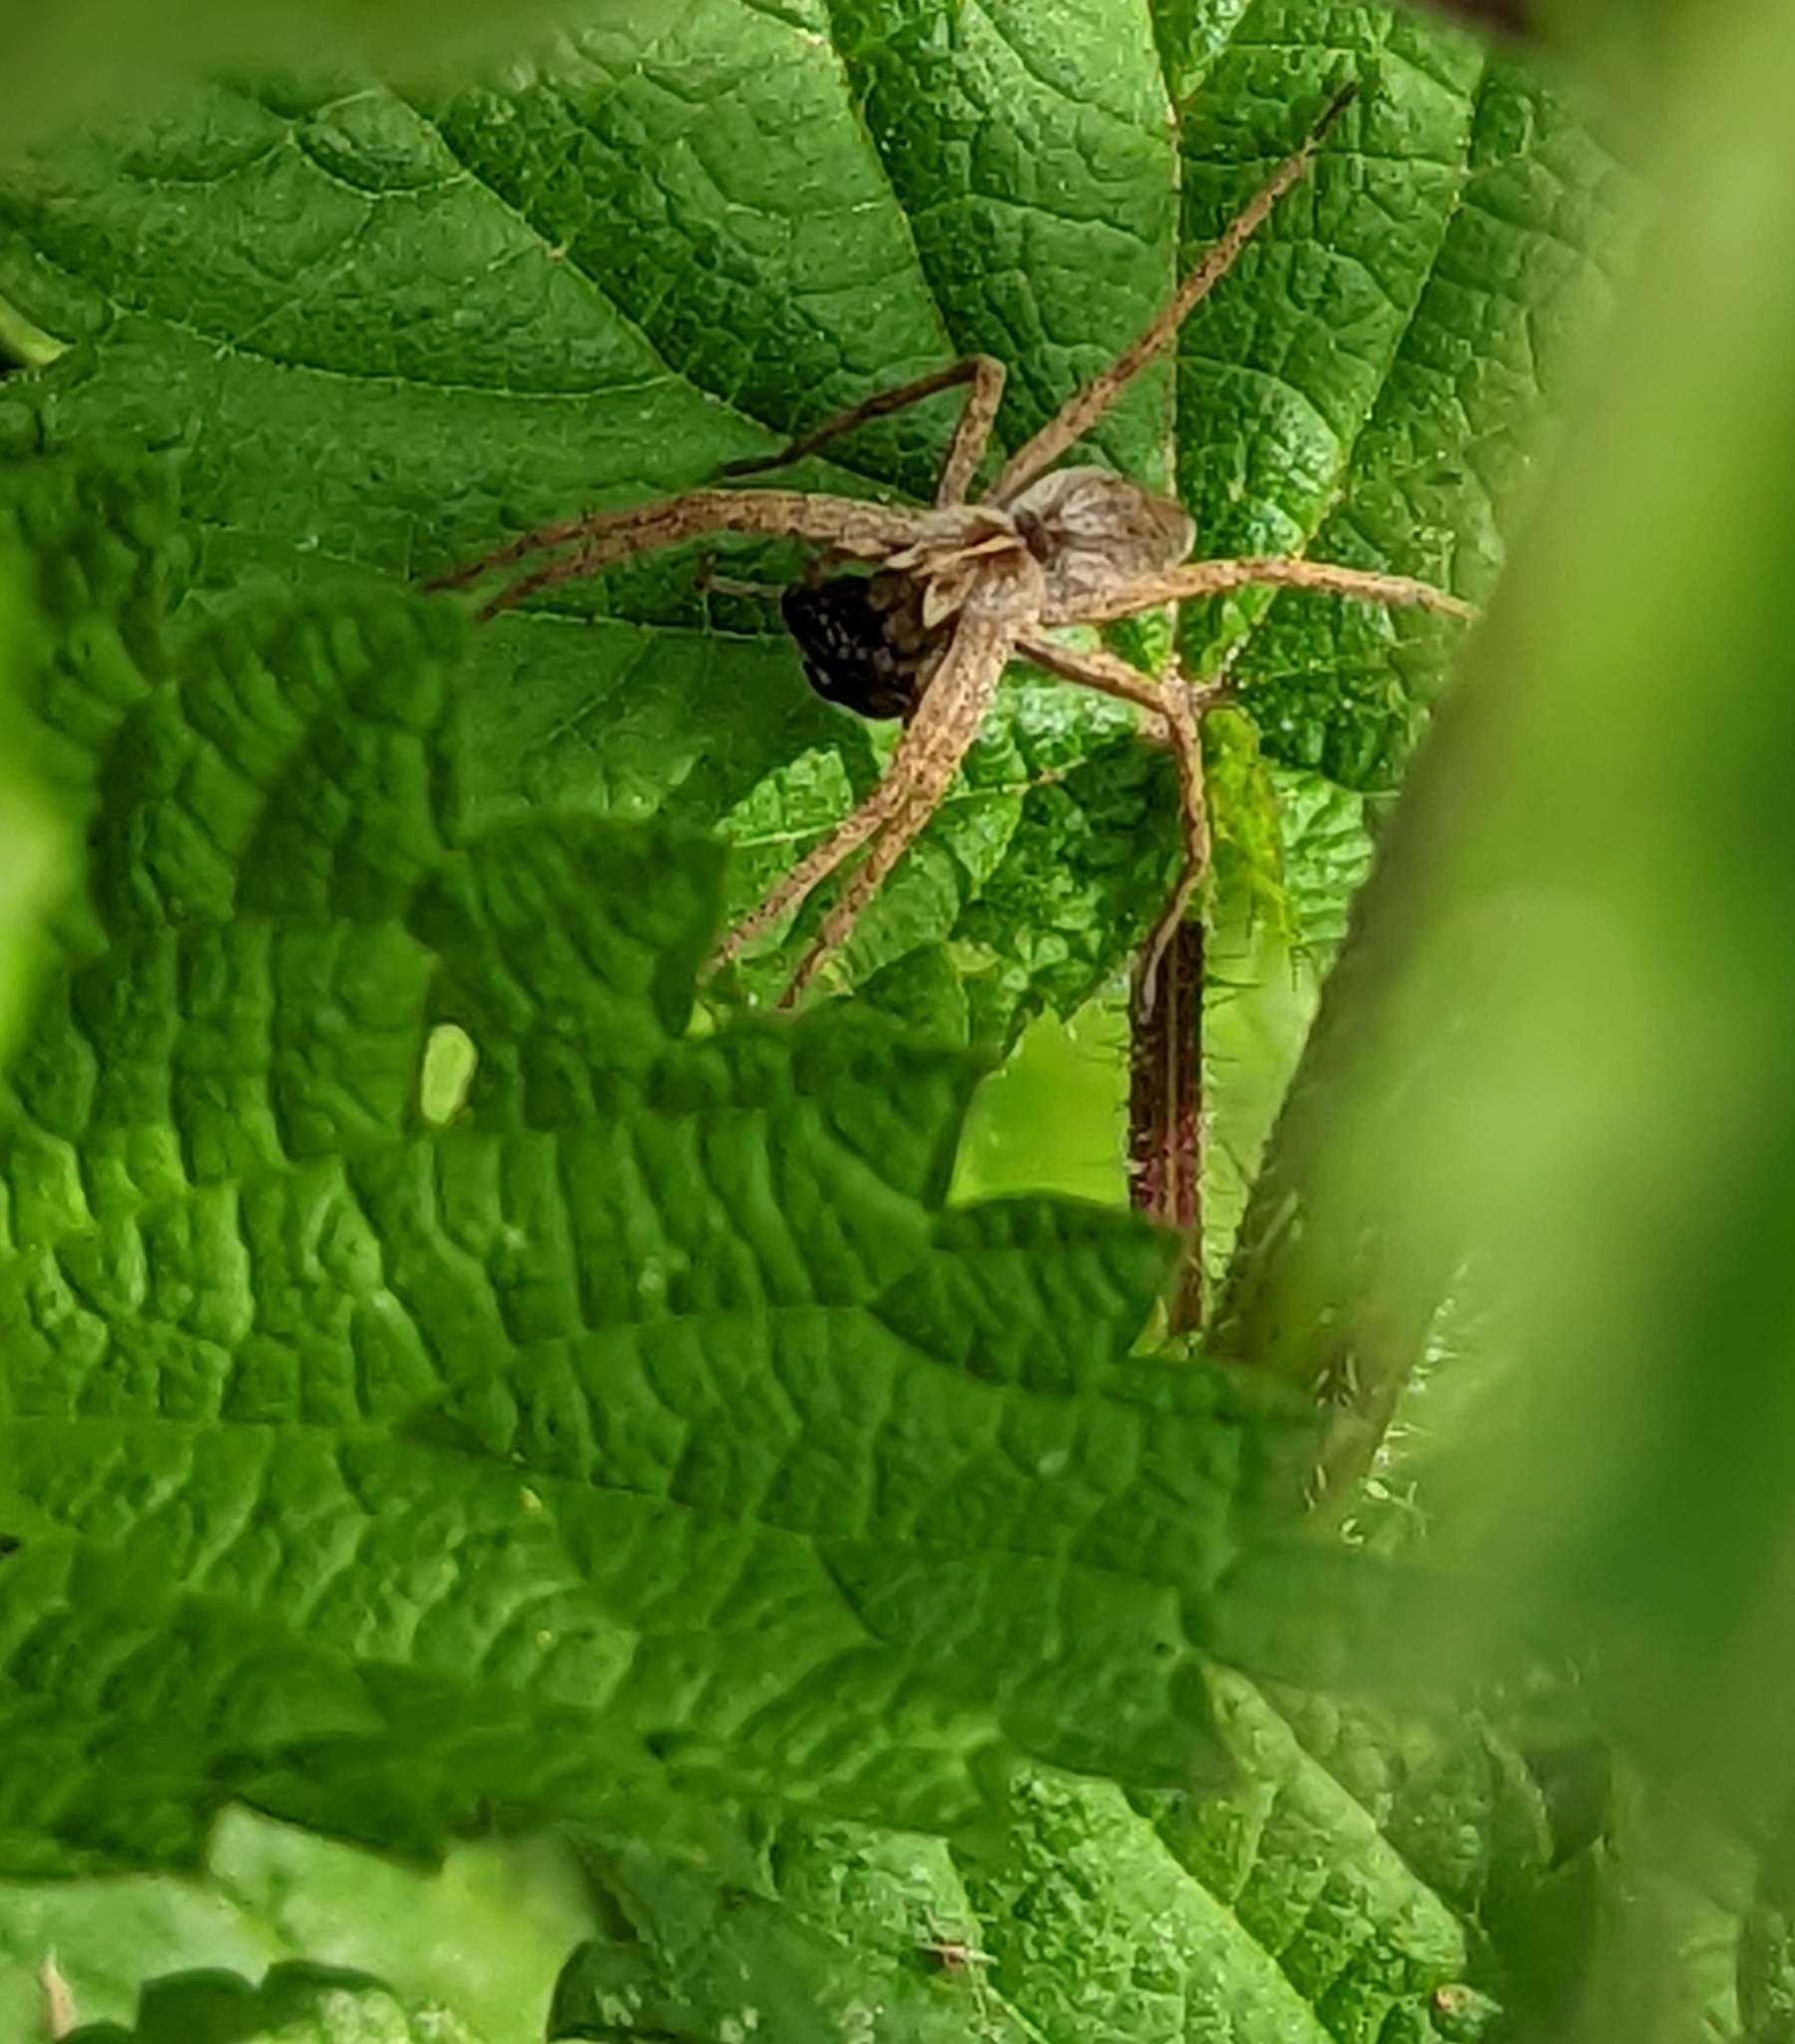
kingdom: Animalia
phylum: Arthropoda
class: Arachnida
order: Araneae
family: Pisauridae
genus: Pisaura
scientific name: Pisaura mirabilis
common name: Tent spider
